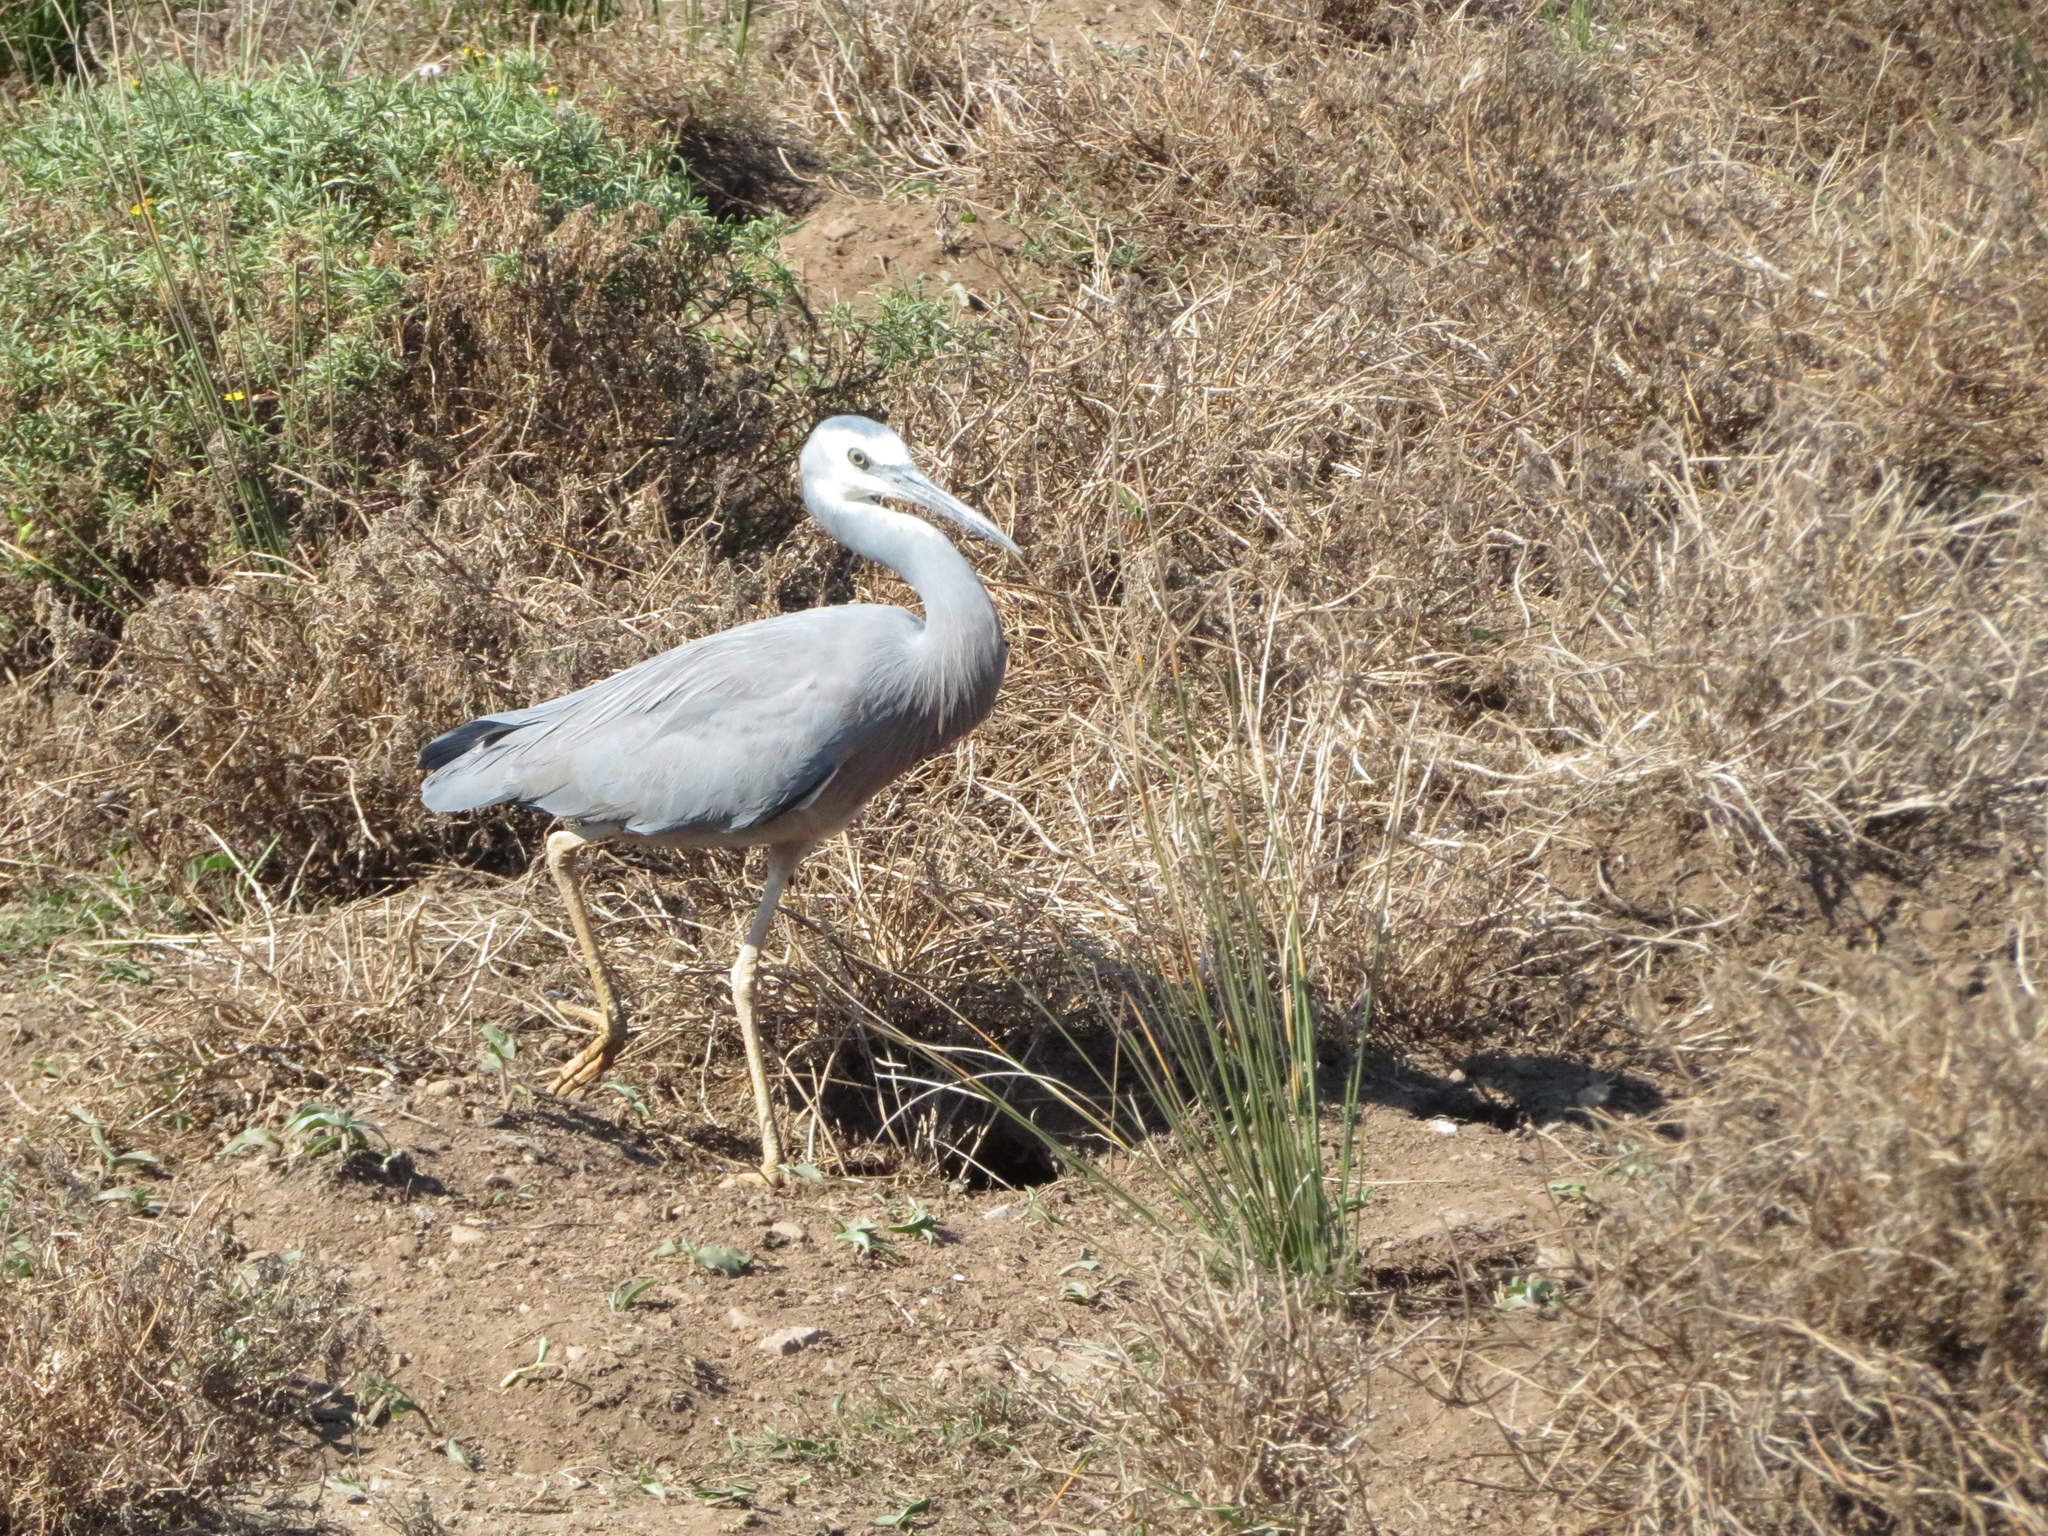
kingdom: Animalia
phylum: Chordata
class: Aves
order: Pelecaniformes
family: Ardeidae
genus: Egretta
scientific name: Egretta novaehollandiae
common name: White-faced heron
